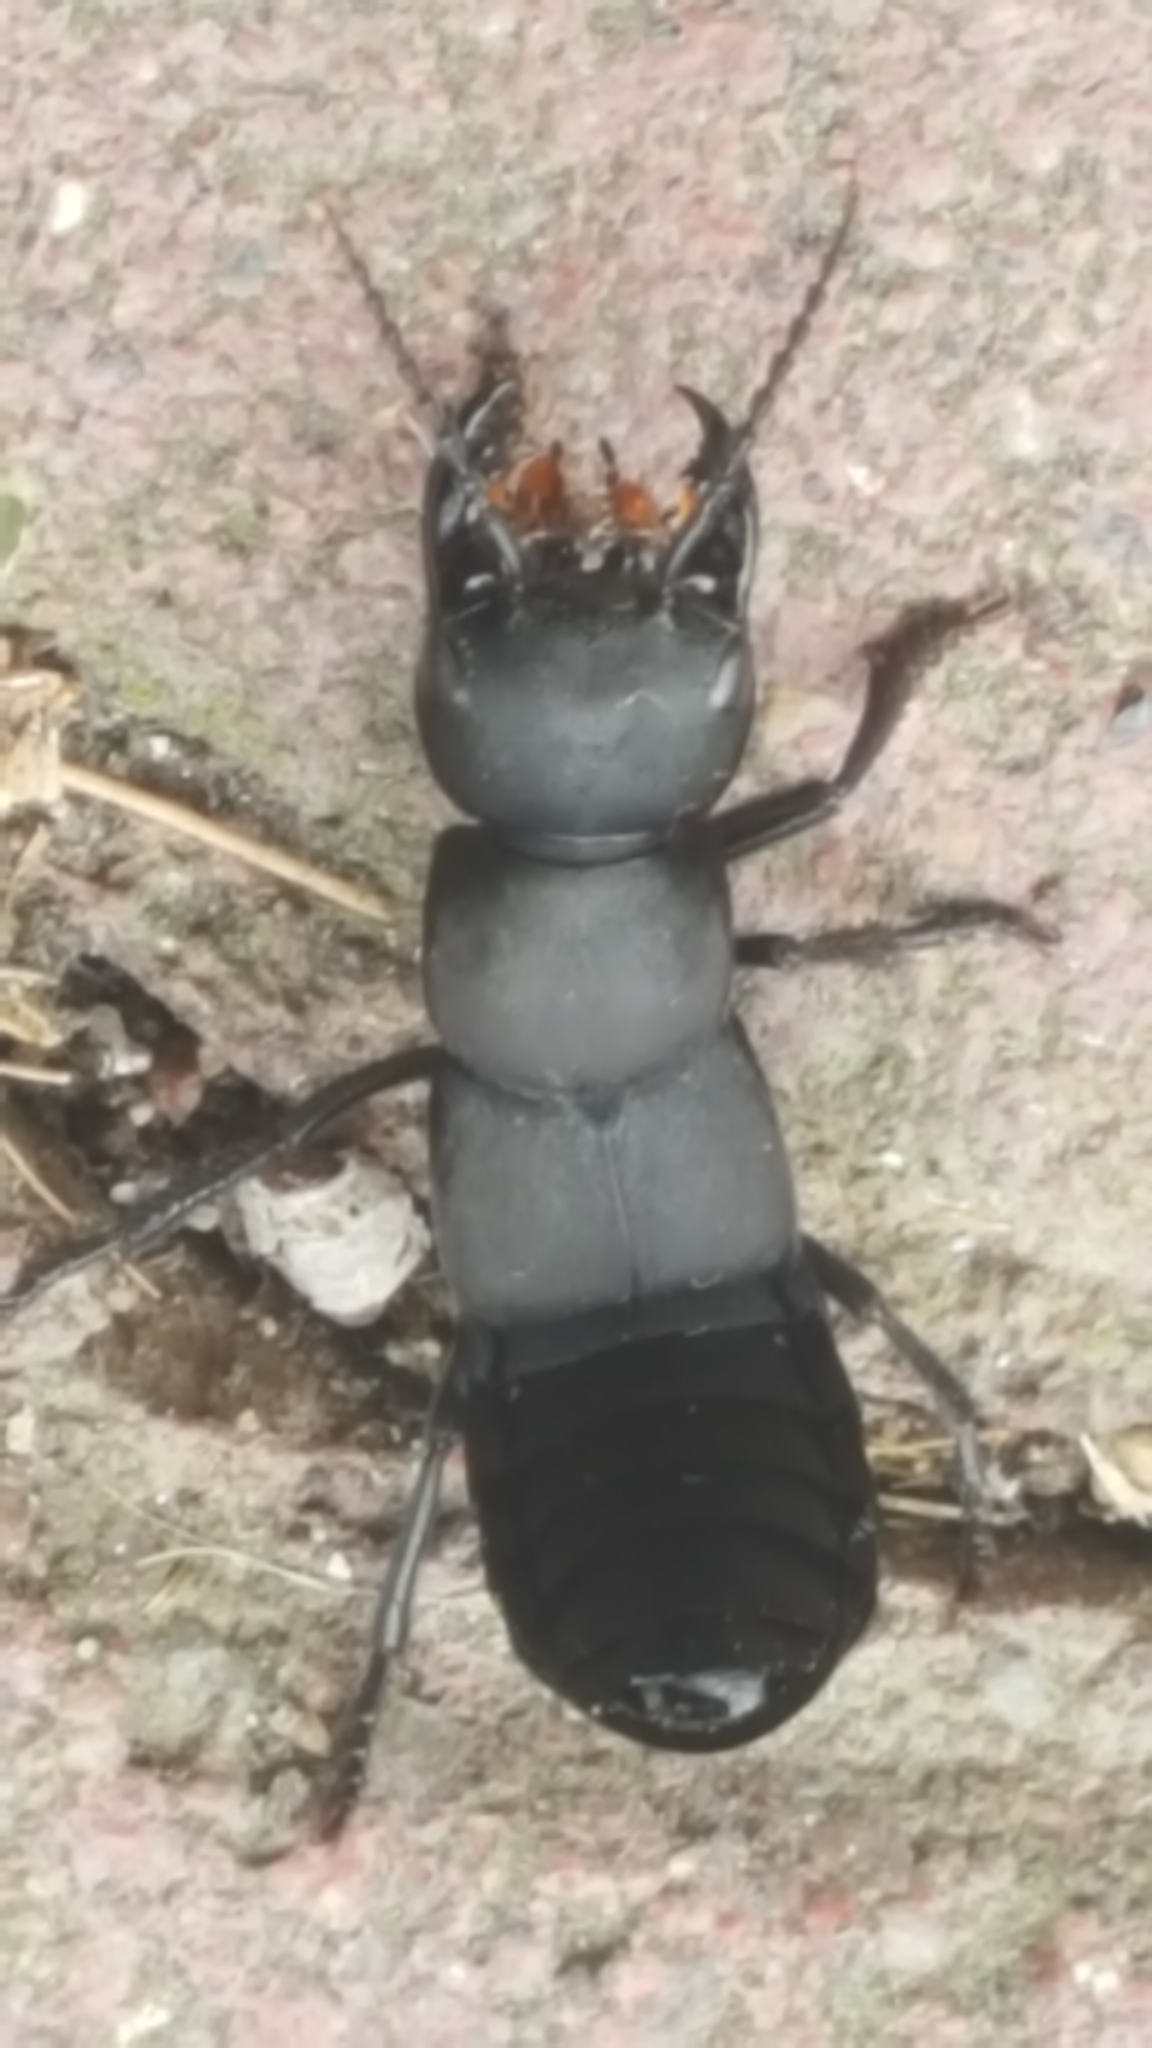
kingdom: Animalia
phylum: Arthropoda
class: Insecta
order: Coleoptera
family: Staphylinidae
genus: Ocypus
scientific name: Ocypus olens
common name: Devil's coach-horse
